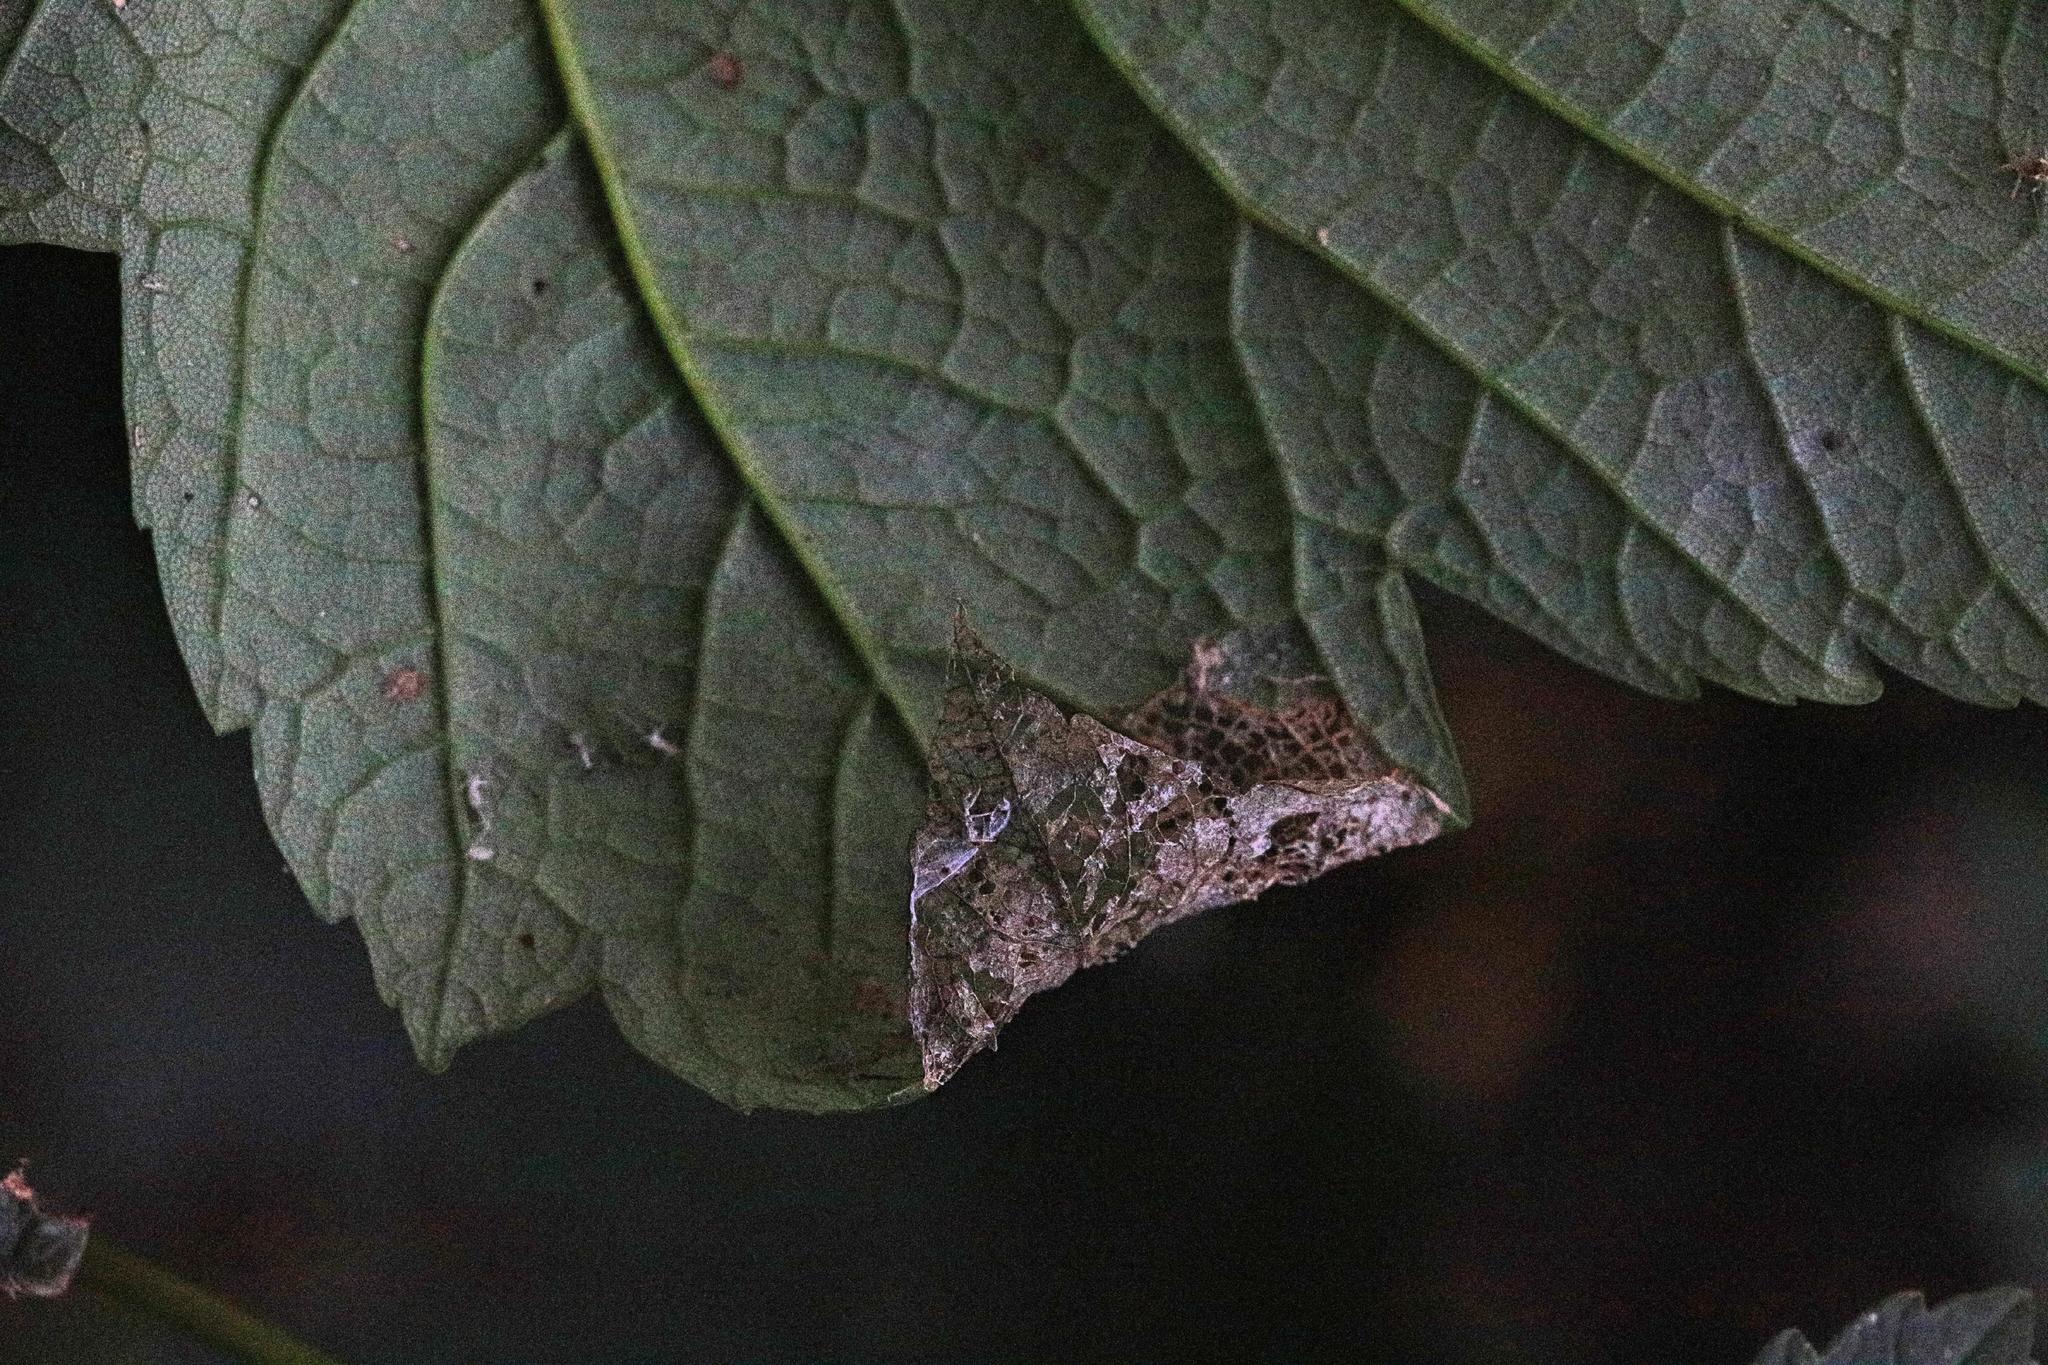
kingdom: Animalia
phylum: Arthropoda
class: Insecta
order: Lepidoptera
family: Gracillariidae
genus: Caloptilia
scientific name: Caloptilia rufipennella
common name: Small red slender
